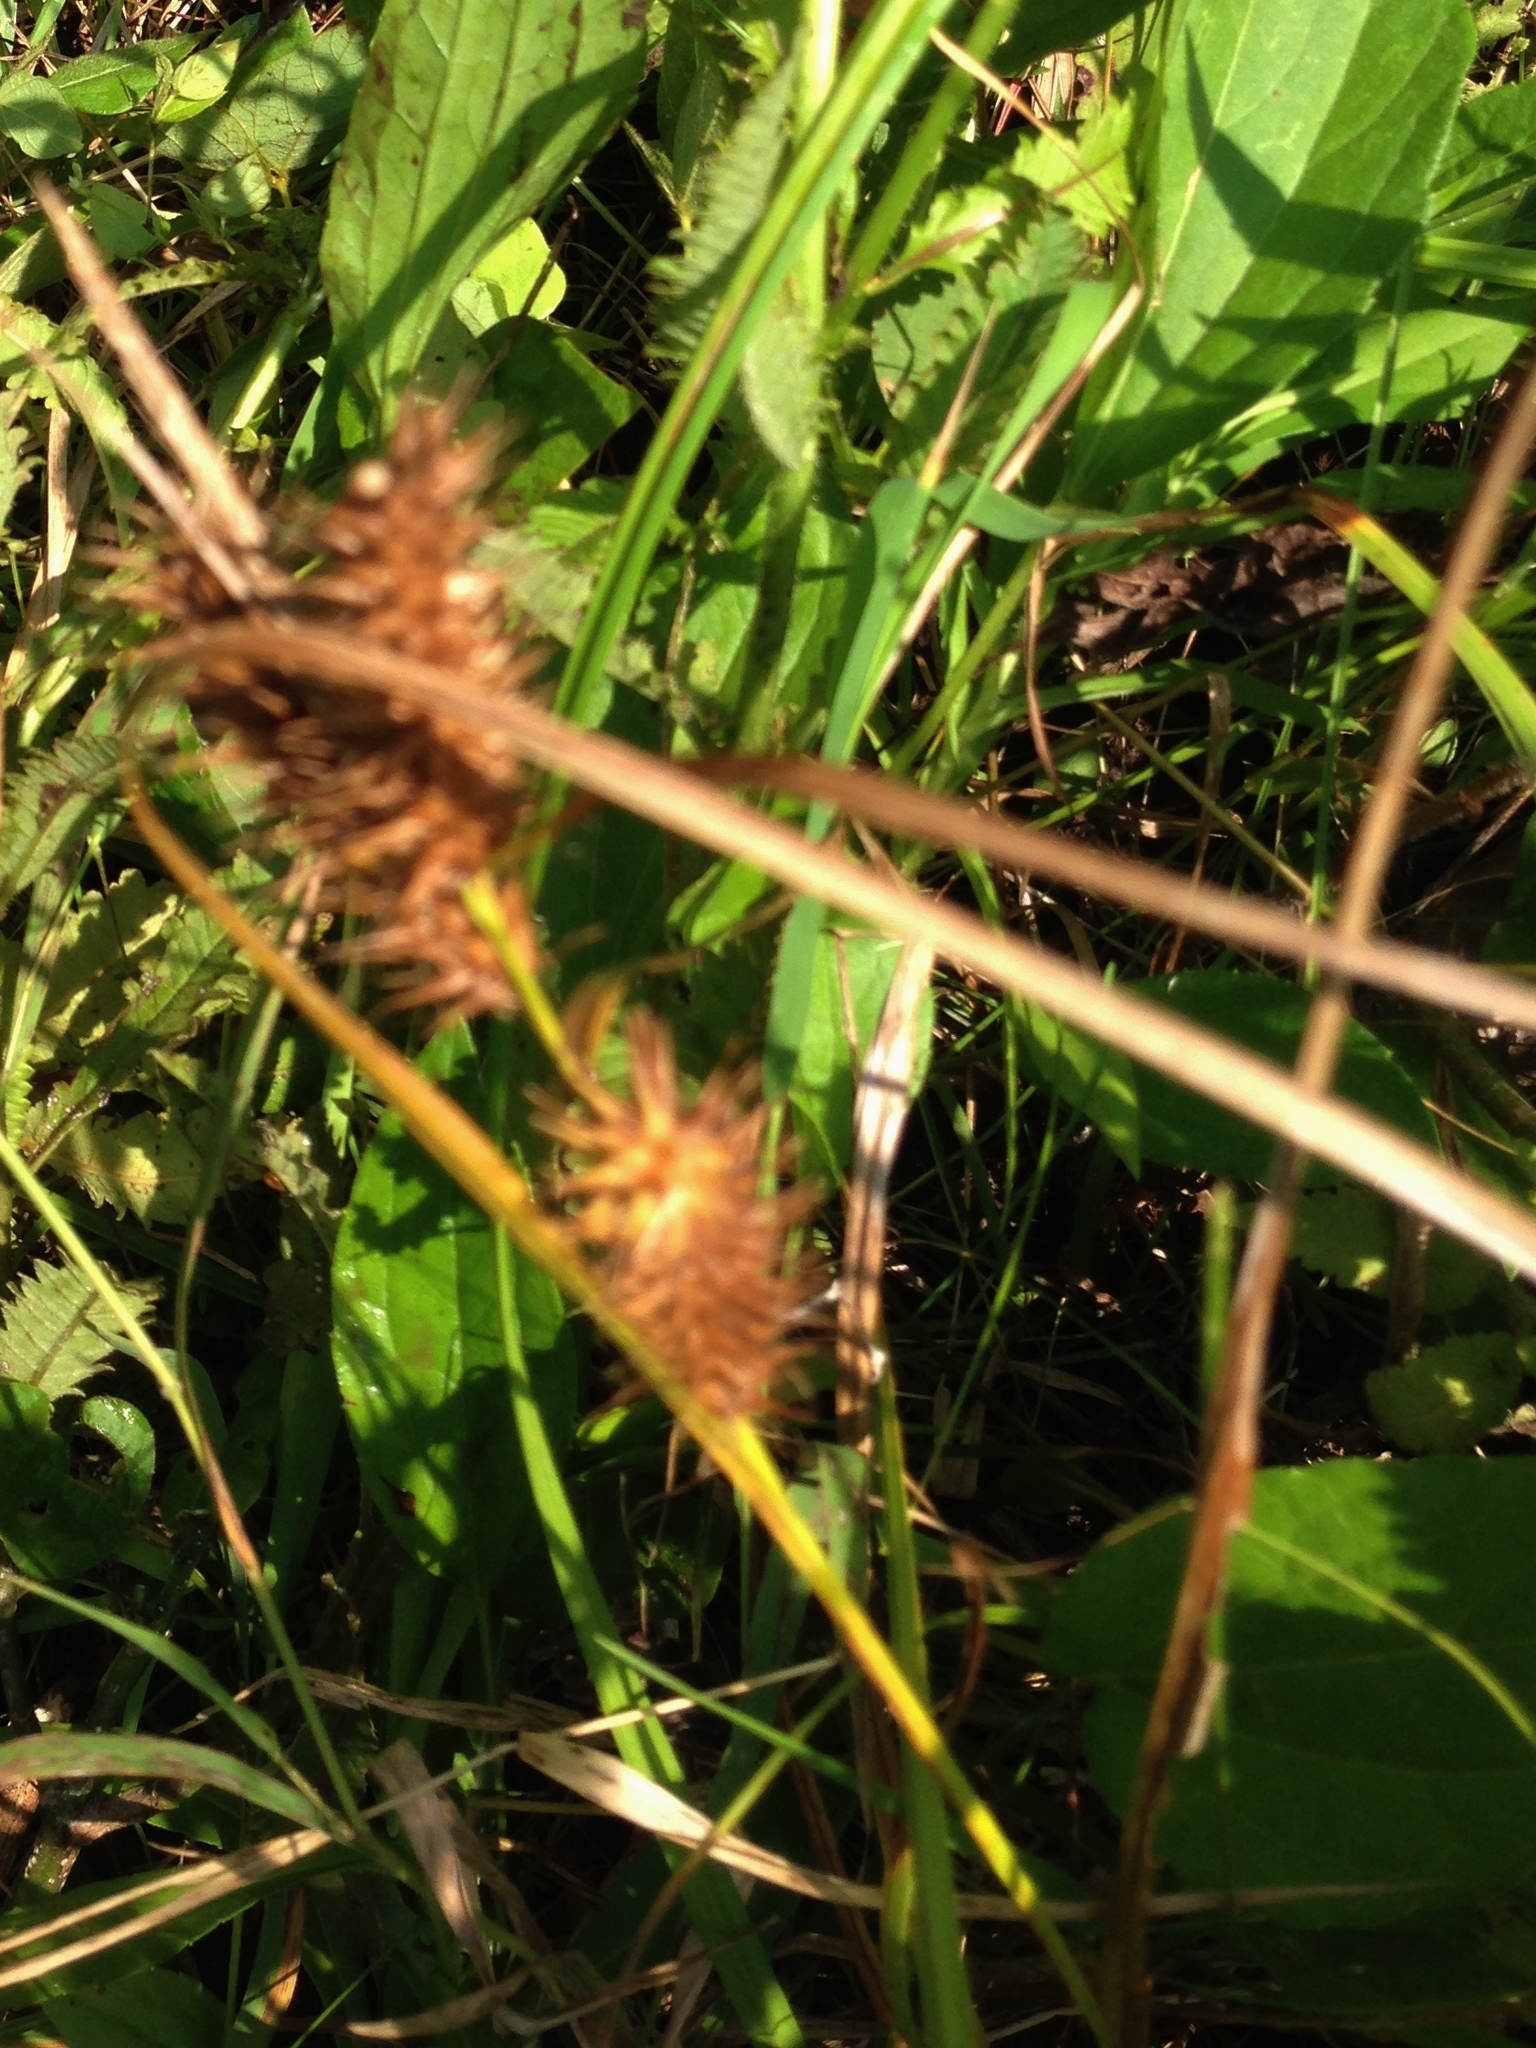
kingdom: Plantae
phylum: Tracheophyta
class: Liliopsida
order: Poales
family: Cyperaceae
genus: Carex
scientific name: Carex hystericina
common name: Bottlebrush sedge
